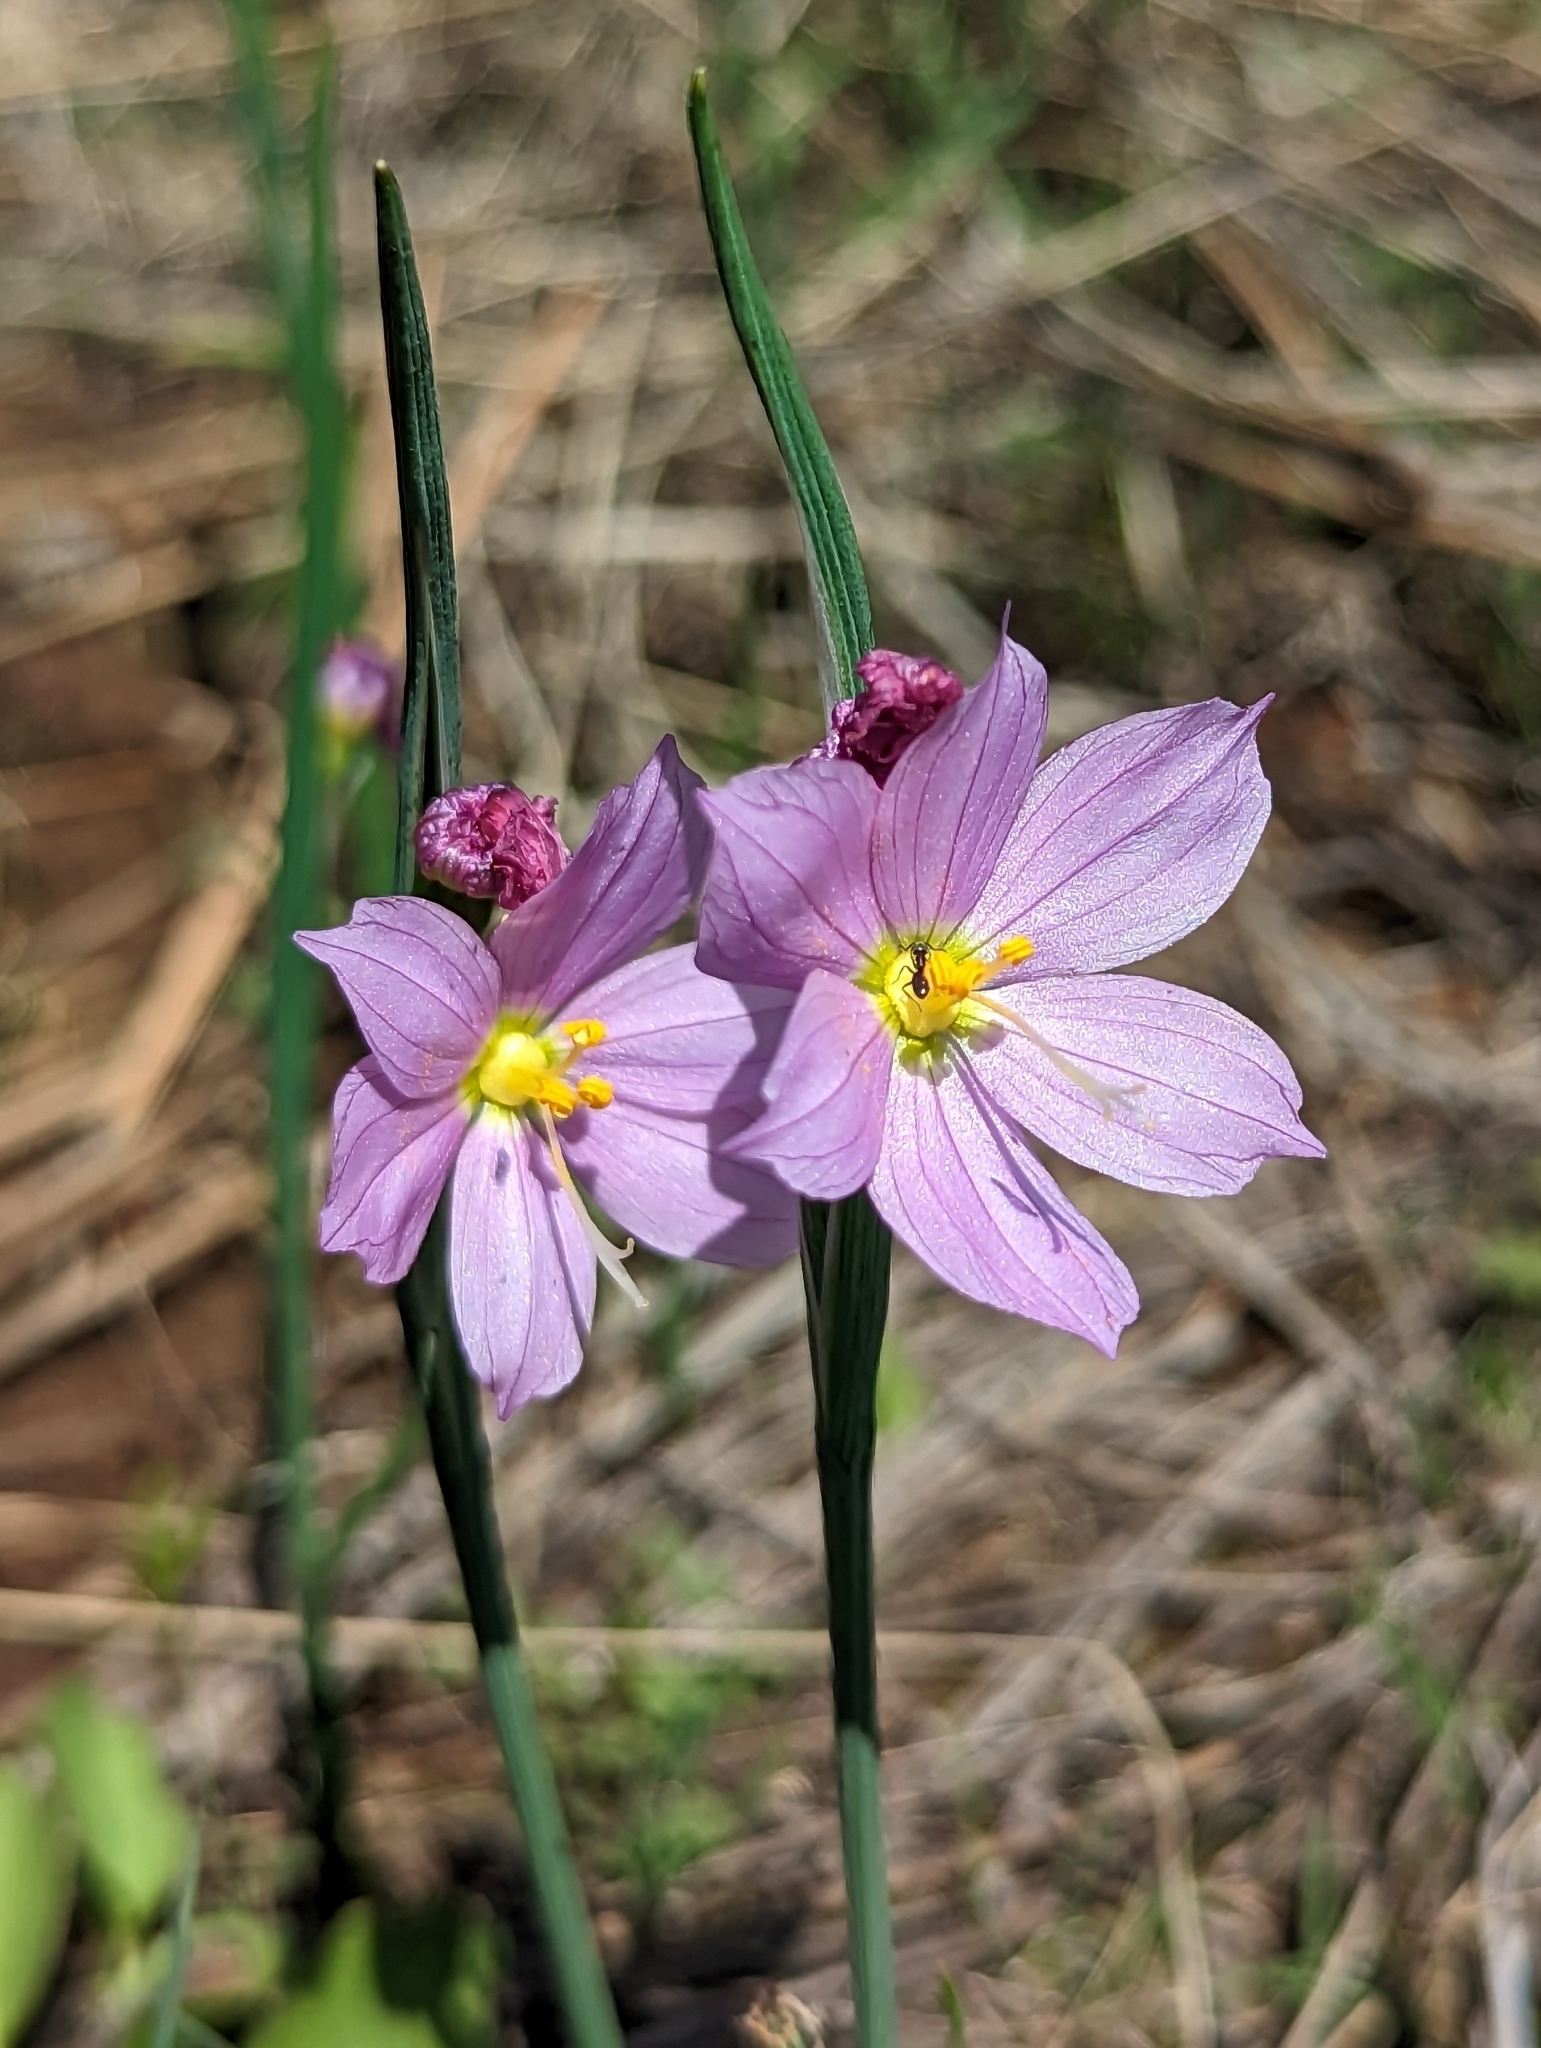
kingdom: Plantae
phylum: Tracheophyta
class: Liliopsida
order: Asparagales
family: Iridaceae
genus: Olsynium
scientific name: Olsynium douglasii
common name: Douglas' grasswidow
